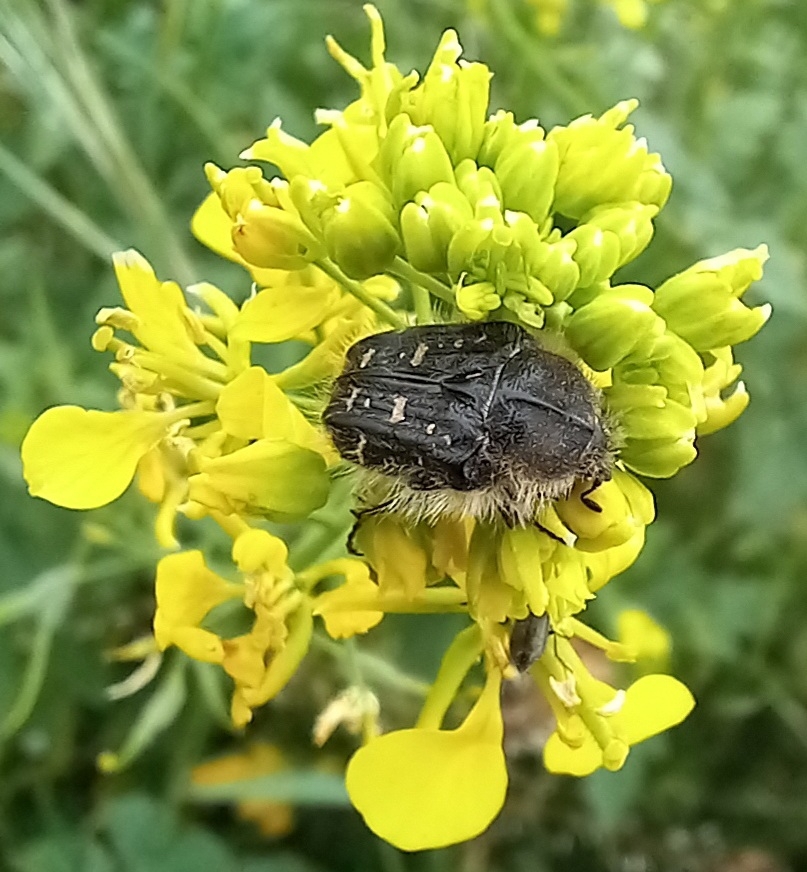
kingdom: Animalia
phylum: Arthropoda
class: Insecta
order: Coleoptera
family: Scarabaeidae
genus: Tropinota
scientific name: Tropinota squalida
